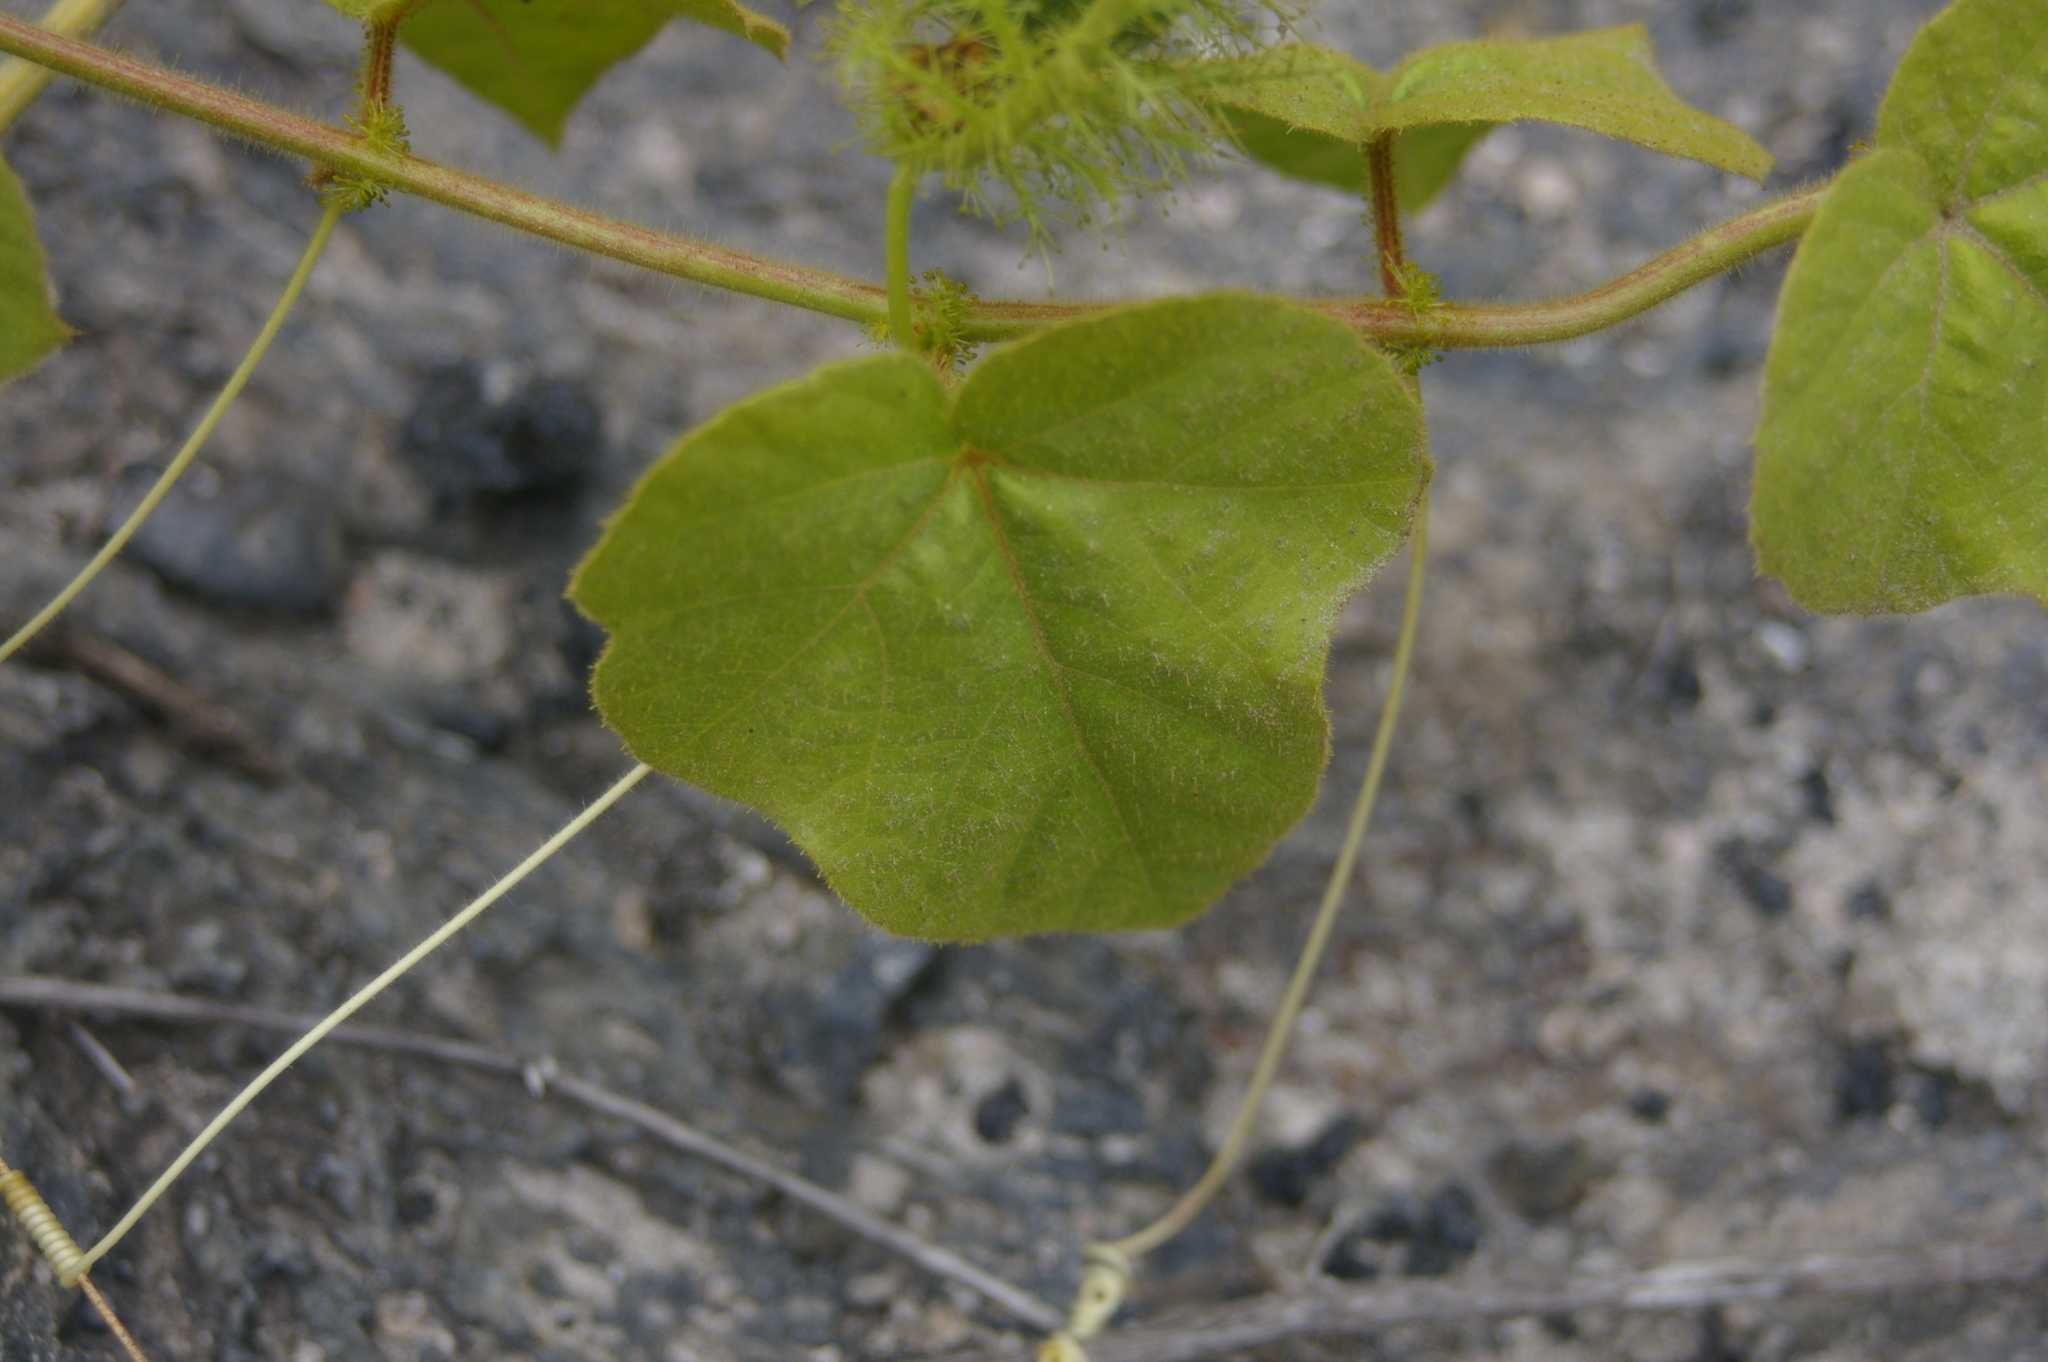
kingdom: Plantae
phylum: Tracheophyta
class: Magnoliopsida
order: Malpighiales
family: Passifloraceae
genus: Passiflora
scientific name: Passiflora vesicaria
